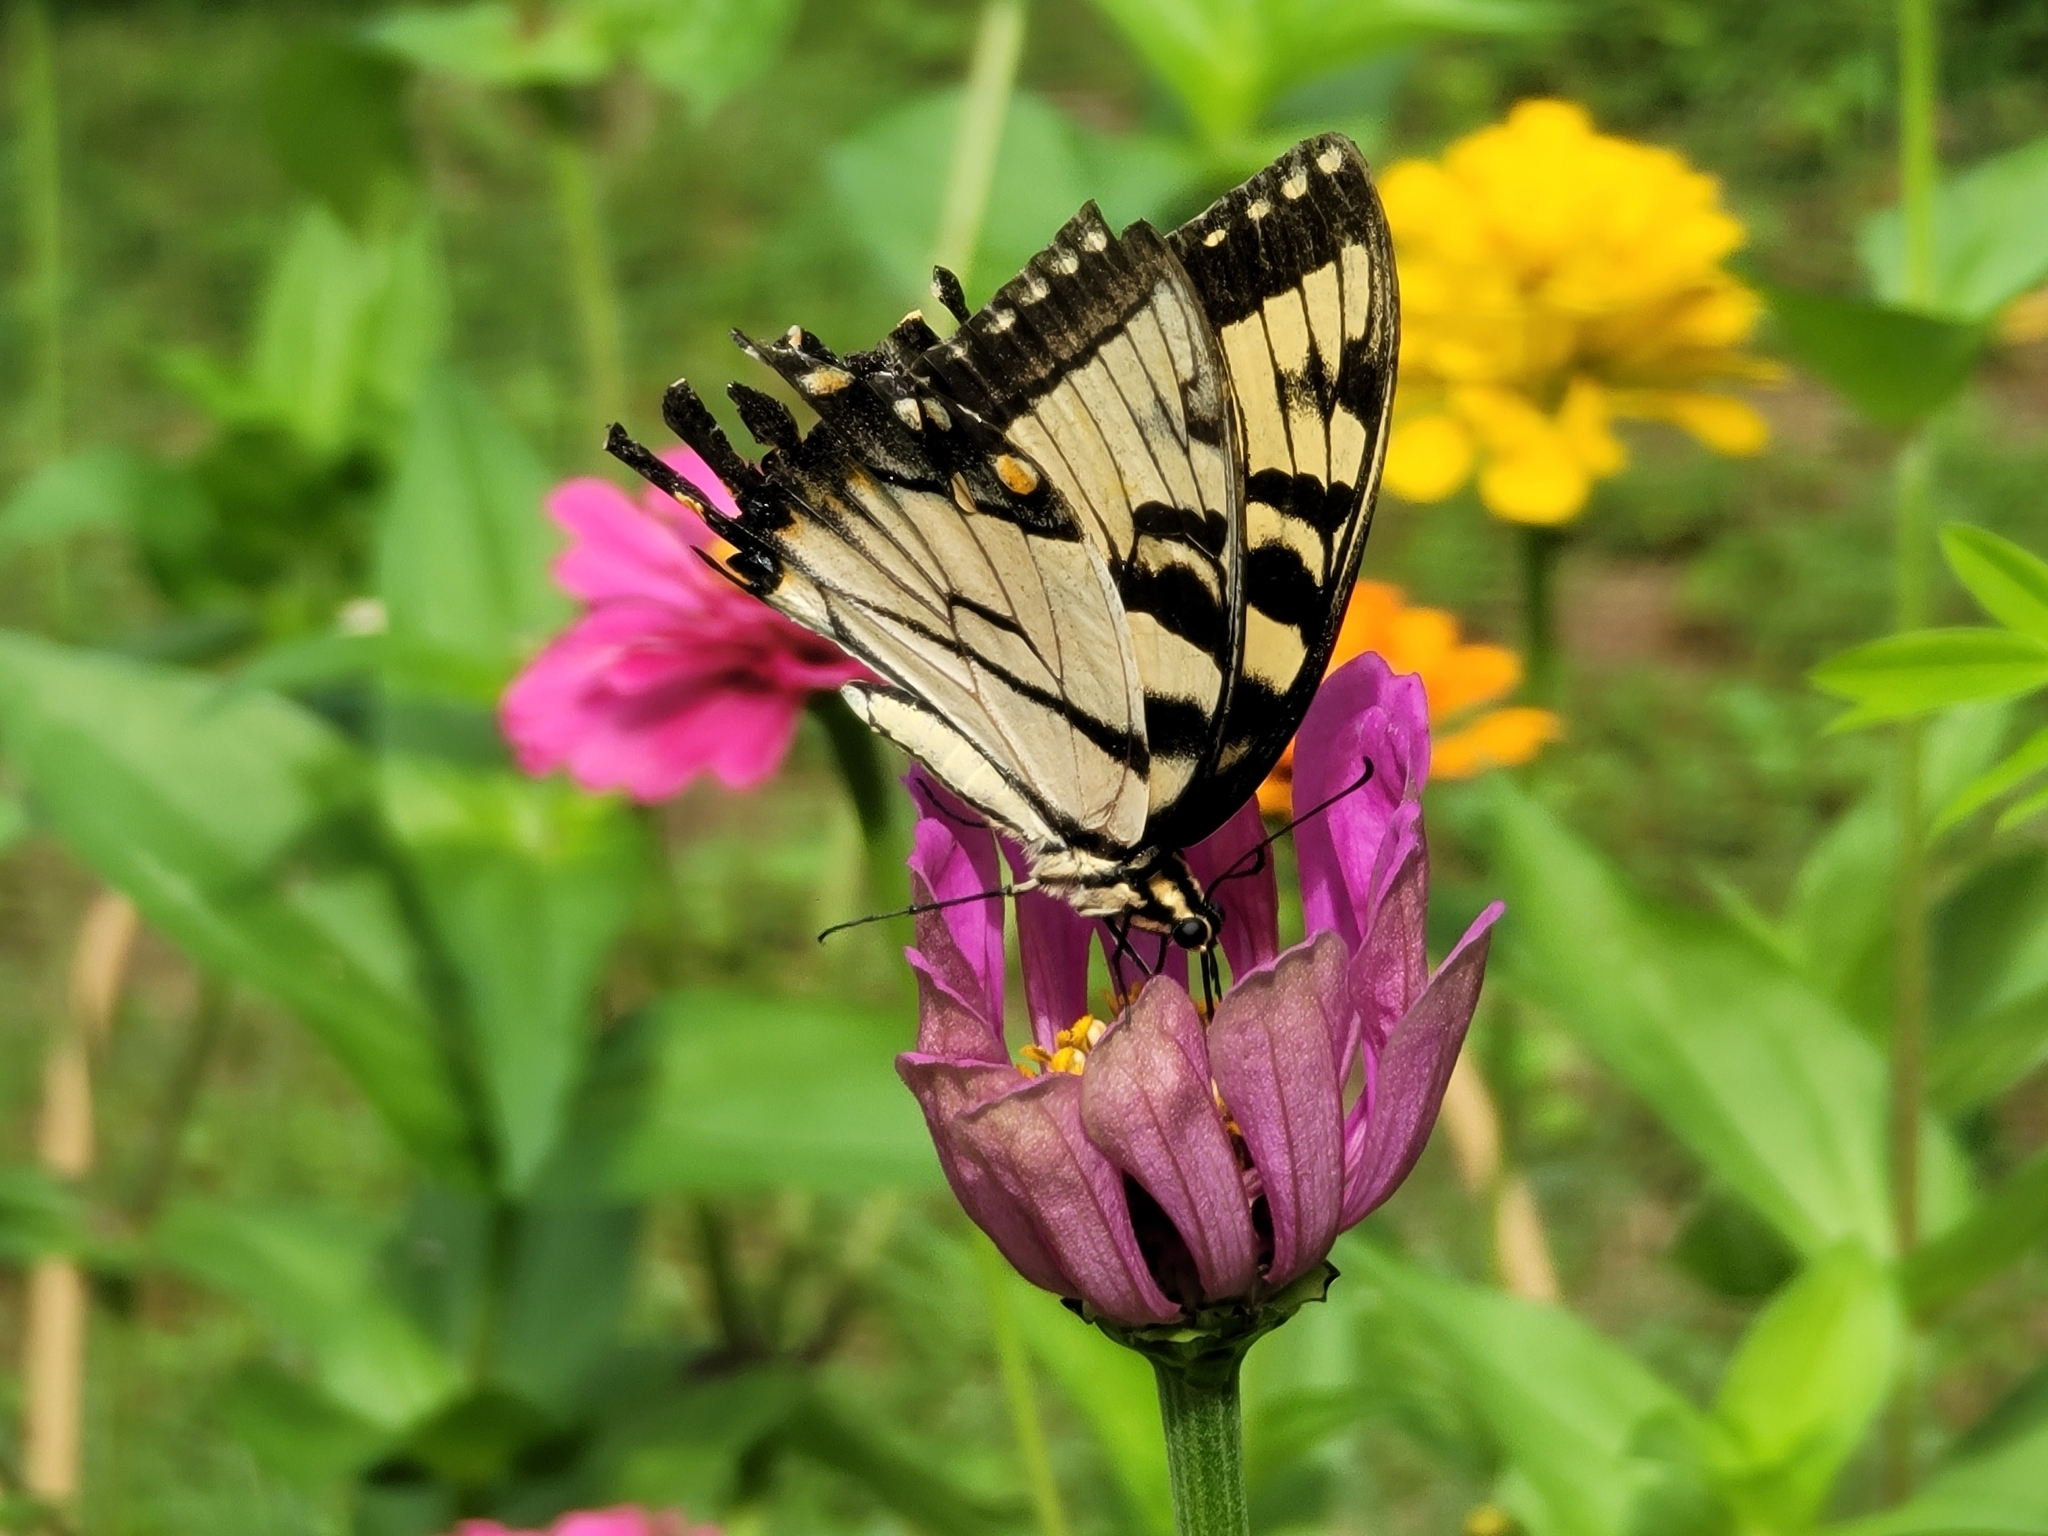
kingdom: Animalia
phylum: Arthropoda
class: Insecta
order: Lepidoptera
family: Papilionidae
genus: Papilio
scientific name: Papilio glaucus
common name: Tiger swallowtail
